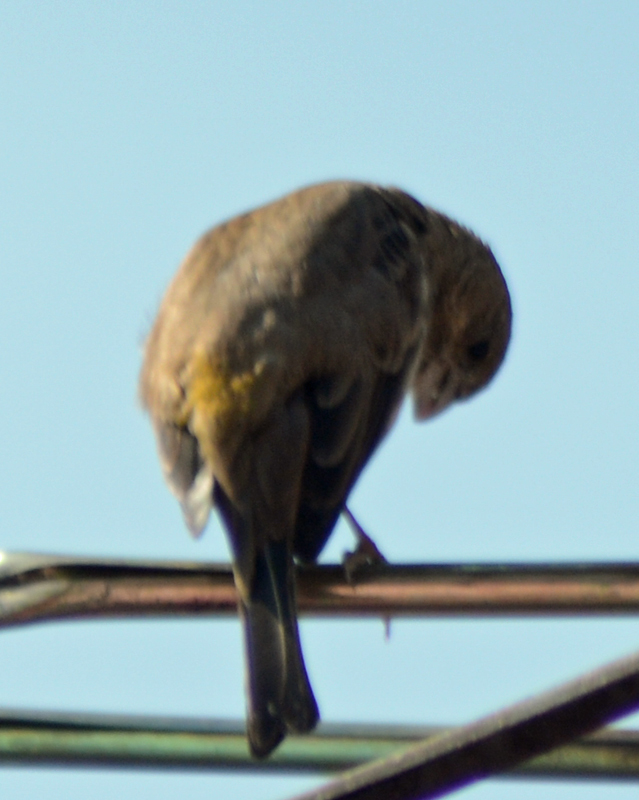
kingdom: Animalia
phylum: Chordata
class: Aves
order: Passeriformes
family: Fringillidae
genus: Haemorhous
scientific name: Haemorhous mexicanus
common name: House finch
